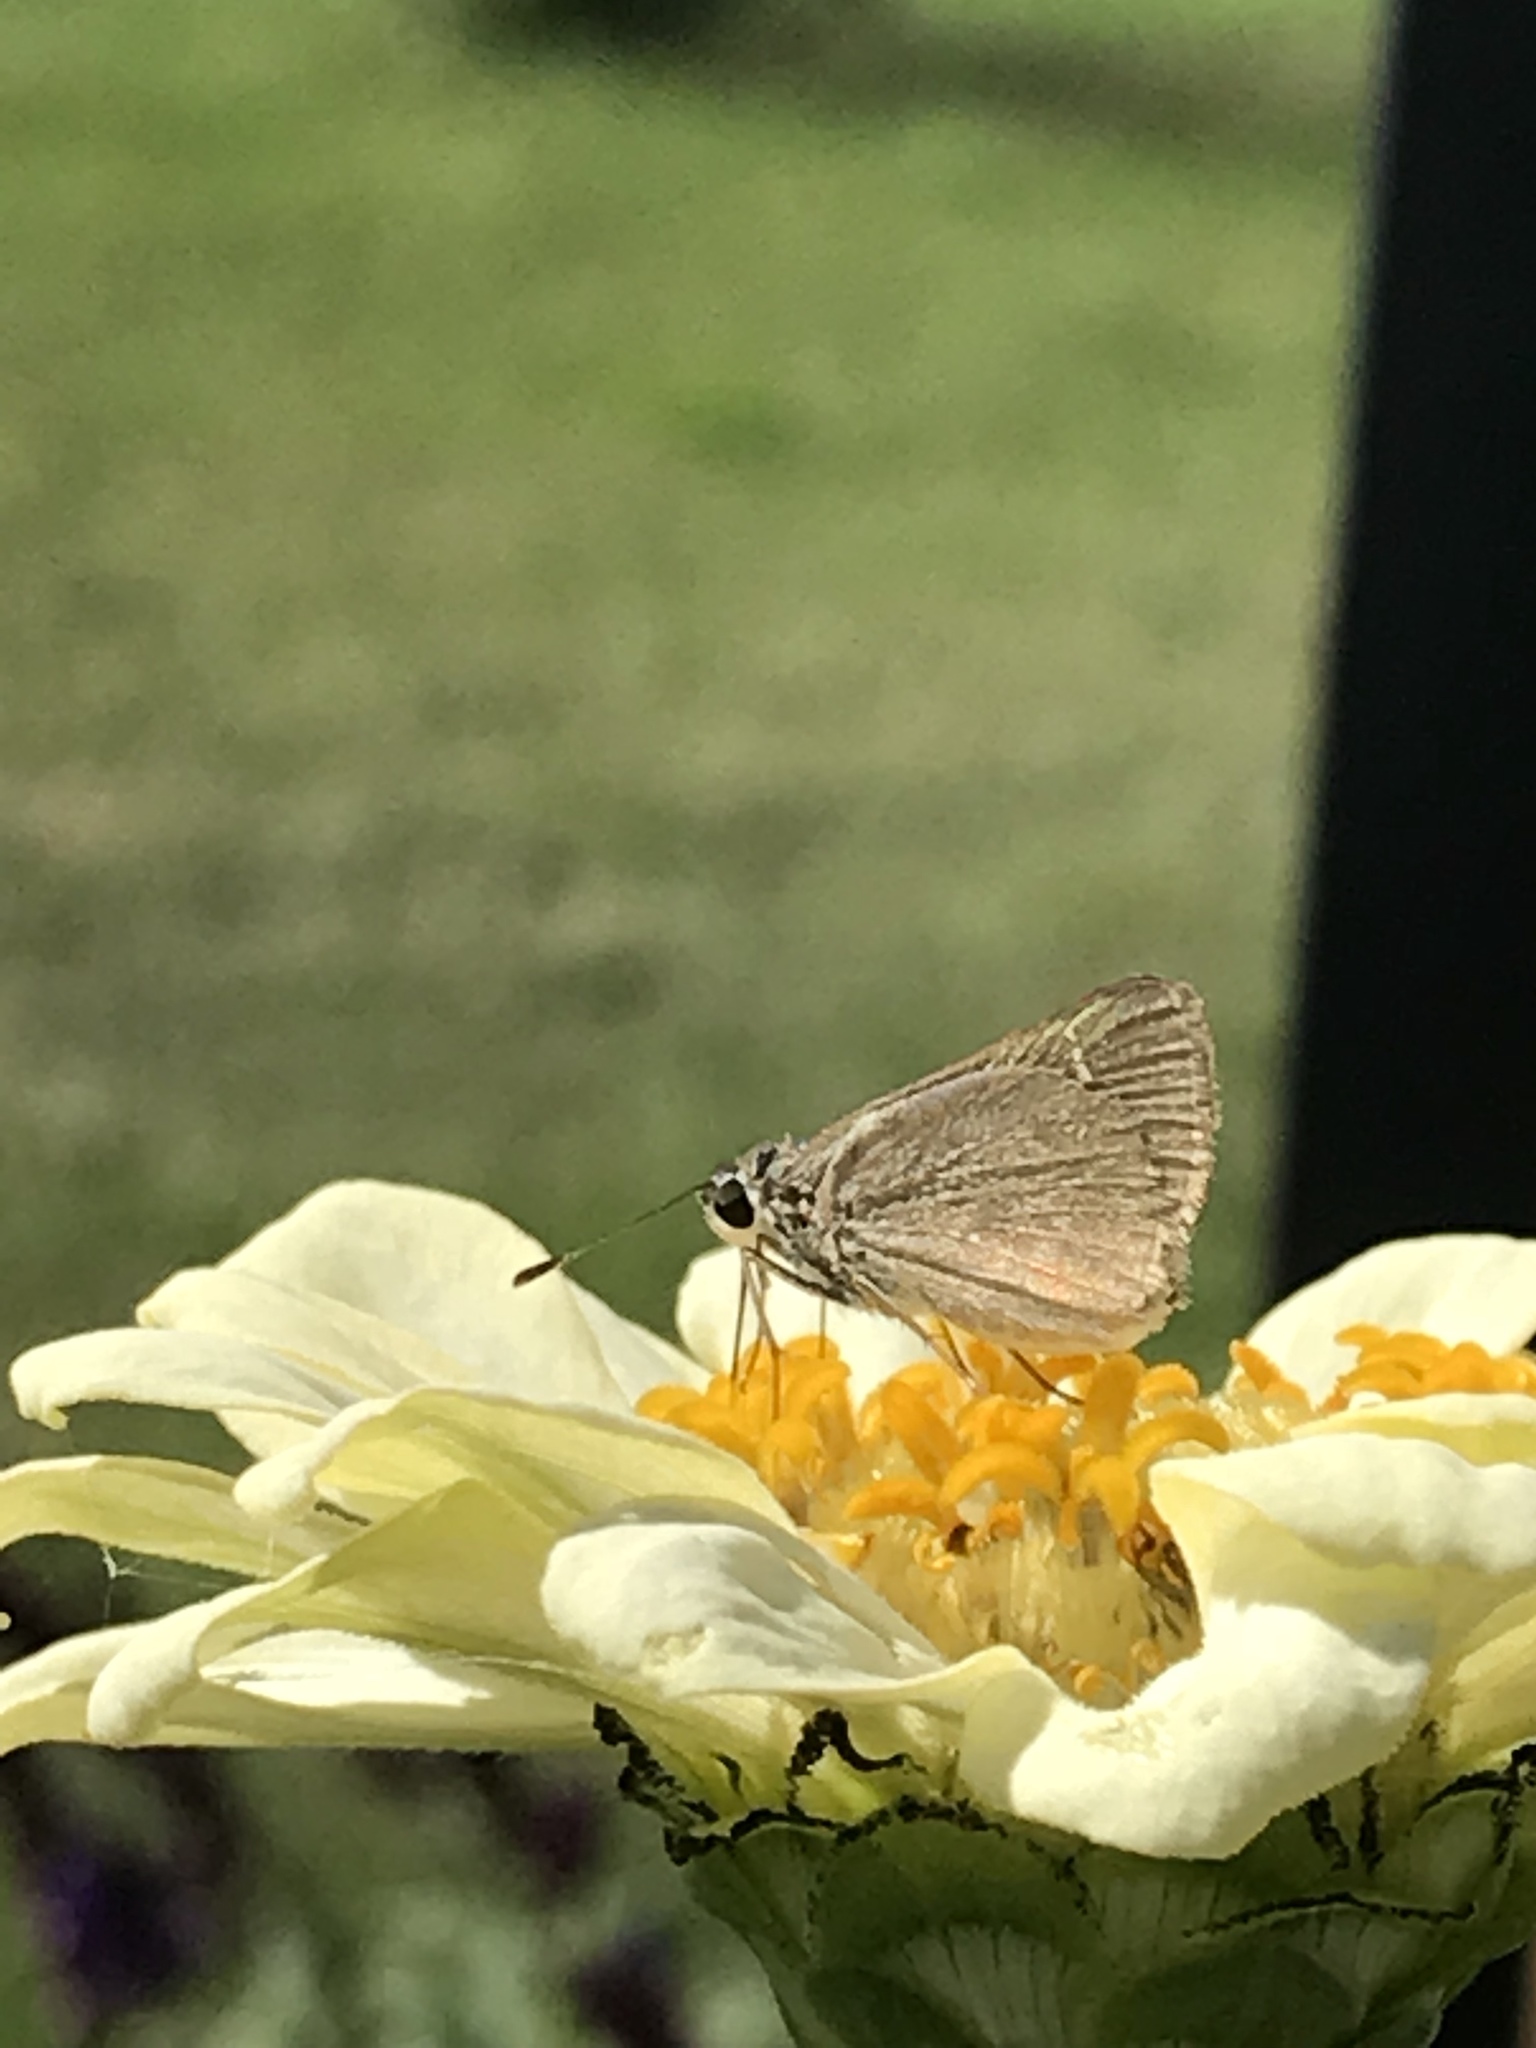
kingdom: Animalia
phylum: Arthropoda
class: Insecta
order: Lepidoptera
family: Hesperiidae
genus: Lerodea
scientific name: Lerodea eufala
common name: Eufala skipper
